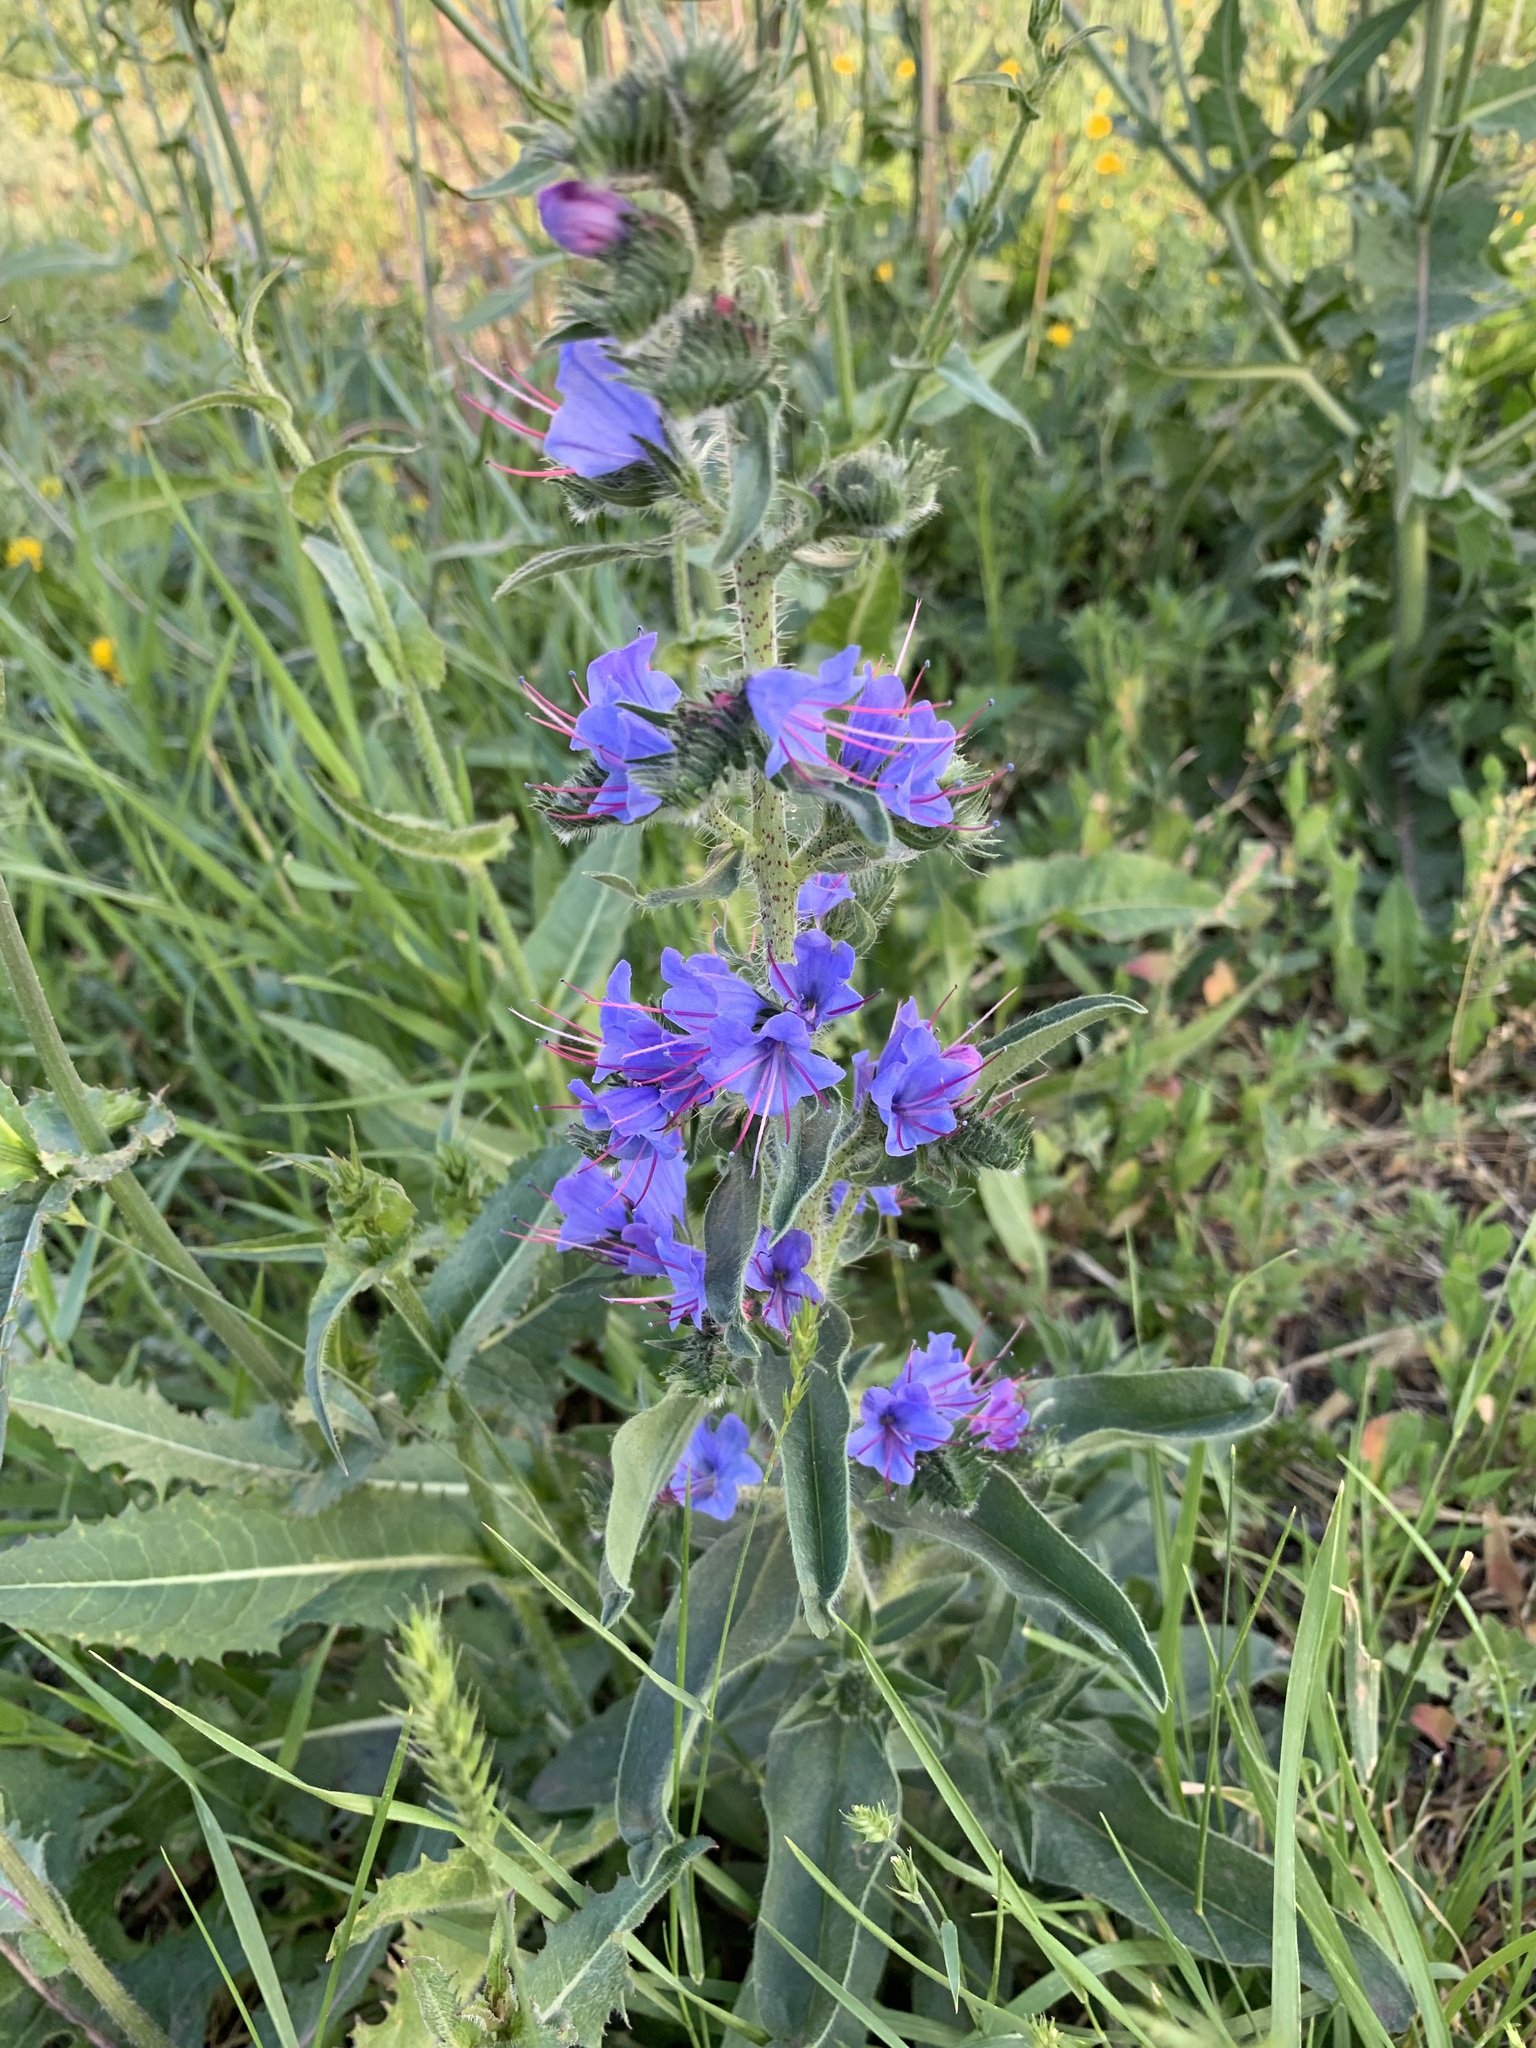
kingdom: Plantae
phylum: Tracheophyta
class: Magnoliopsida
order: Boraginales
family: Boraginaceae
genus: Echium
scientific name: Echium vulgare
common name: Common viper's bugloss
